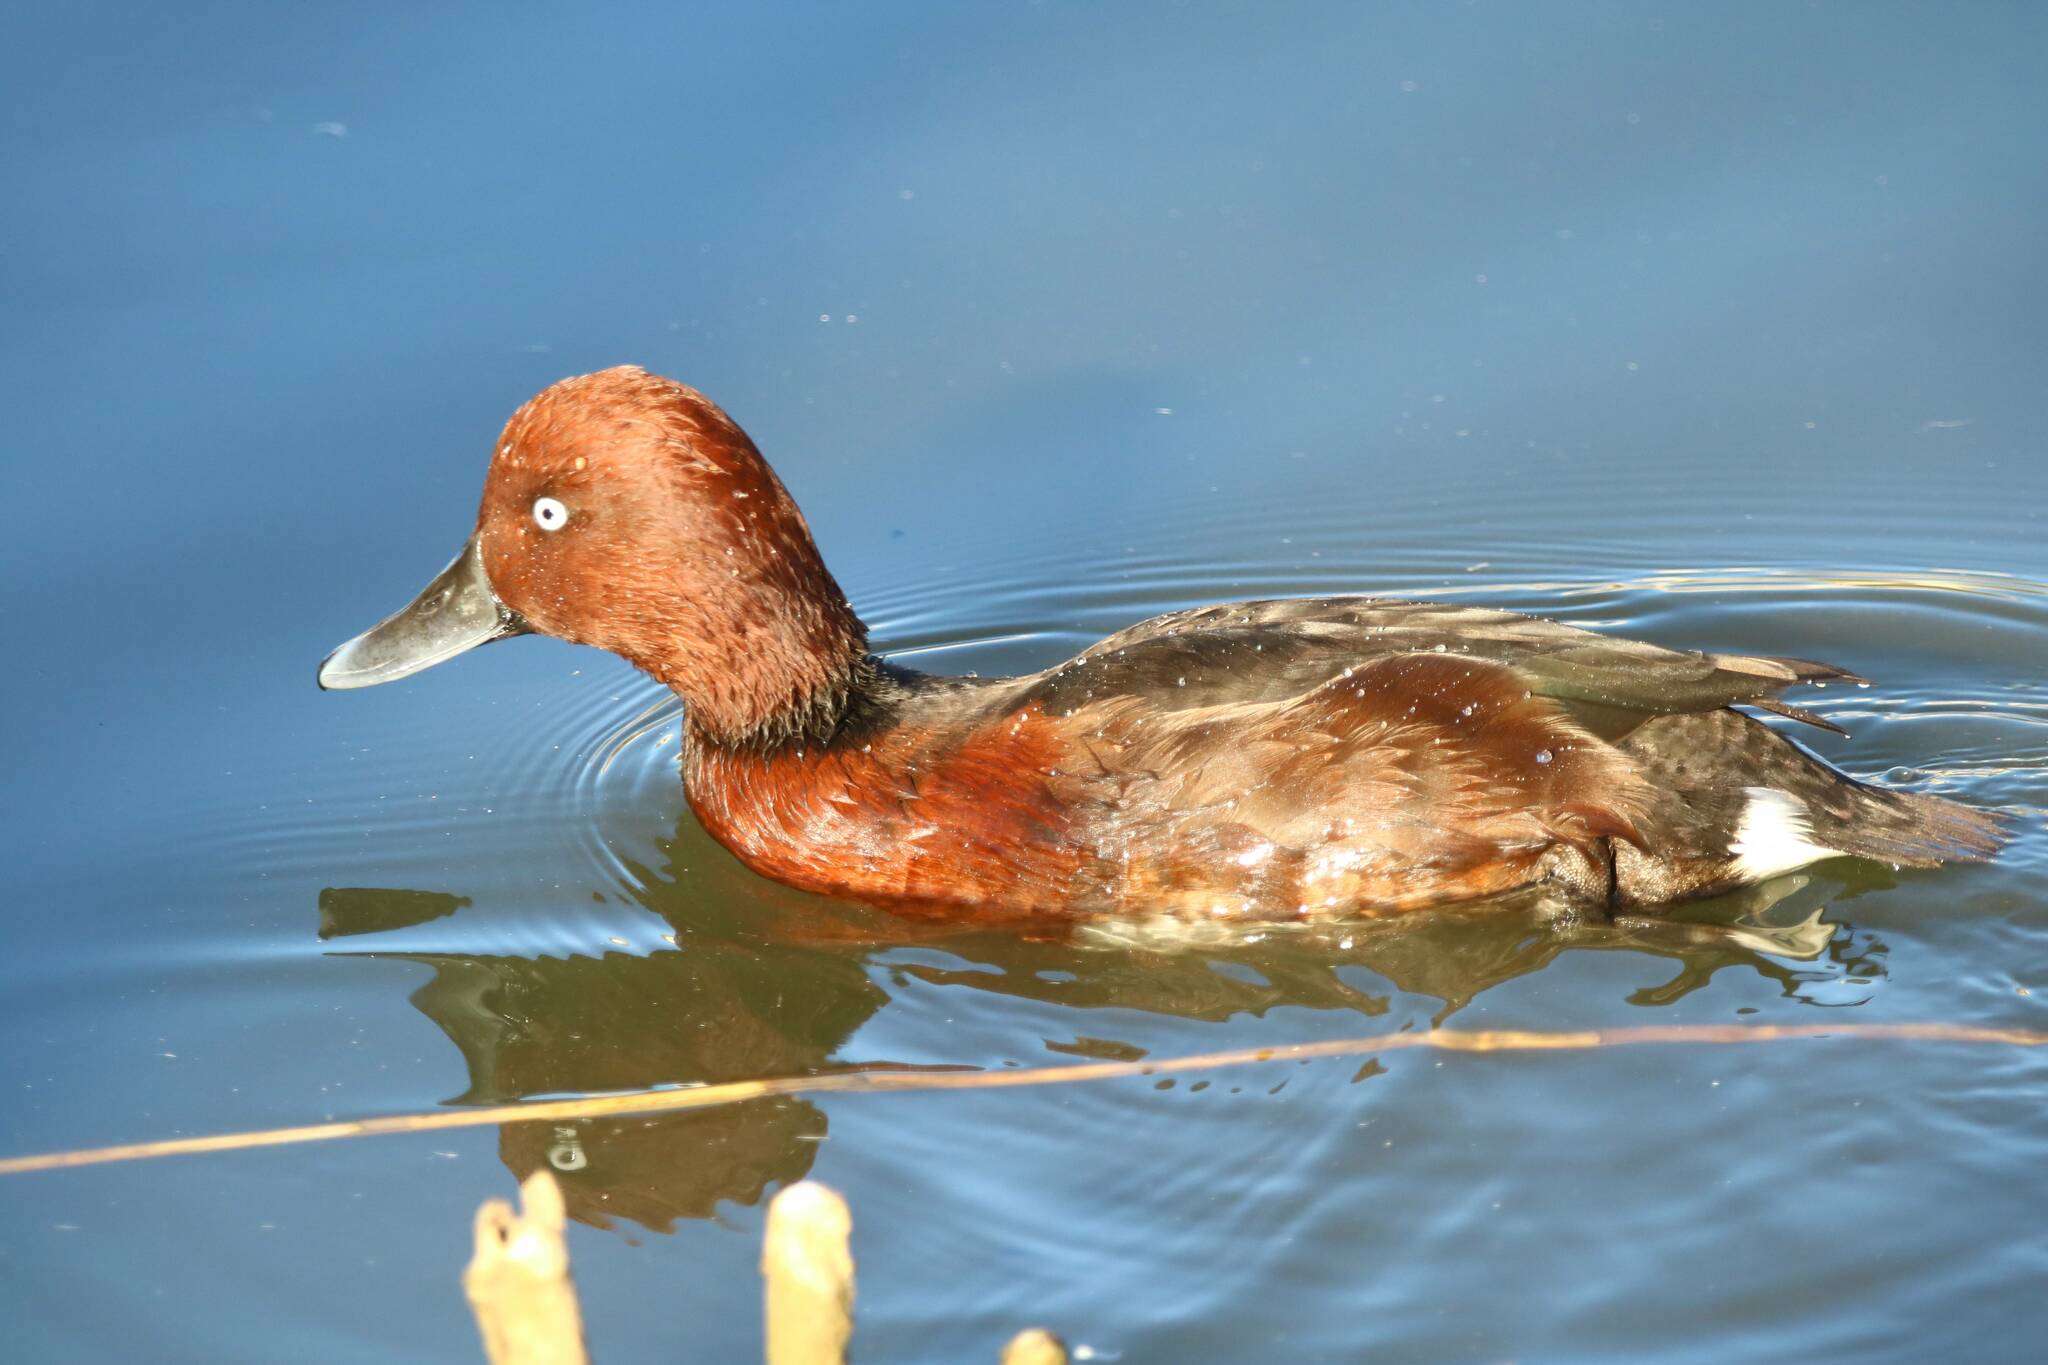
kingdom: Animalia
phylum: Chordata
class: Aves
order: Anseriformes
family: Anatidae
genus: Aythya
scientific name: Aythya nyroca
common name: Ferruginous duck
